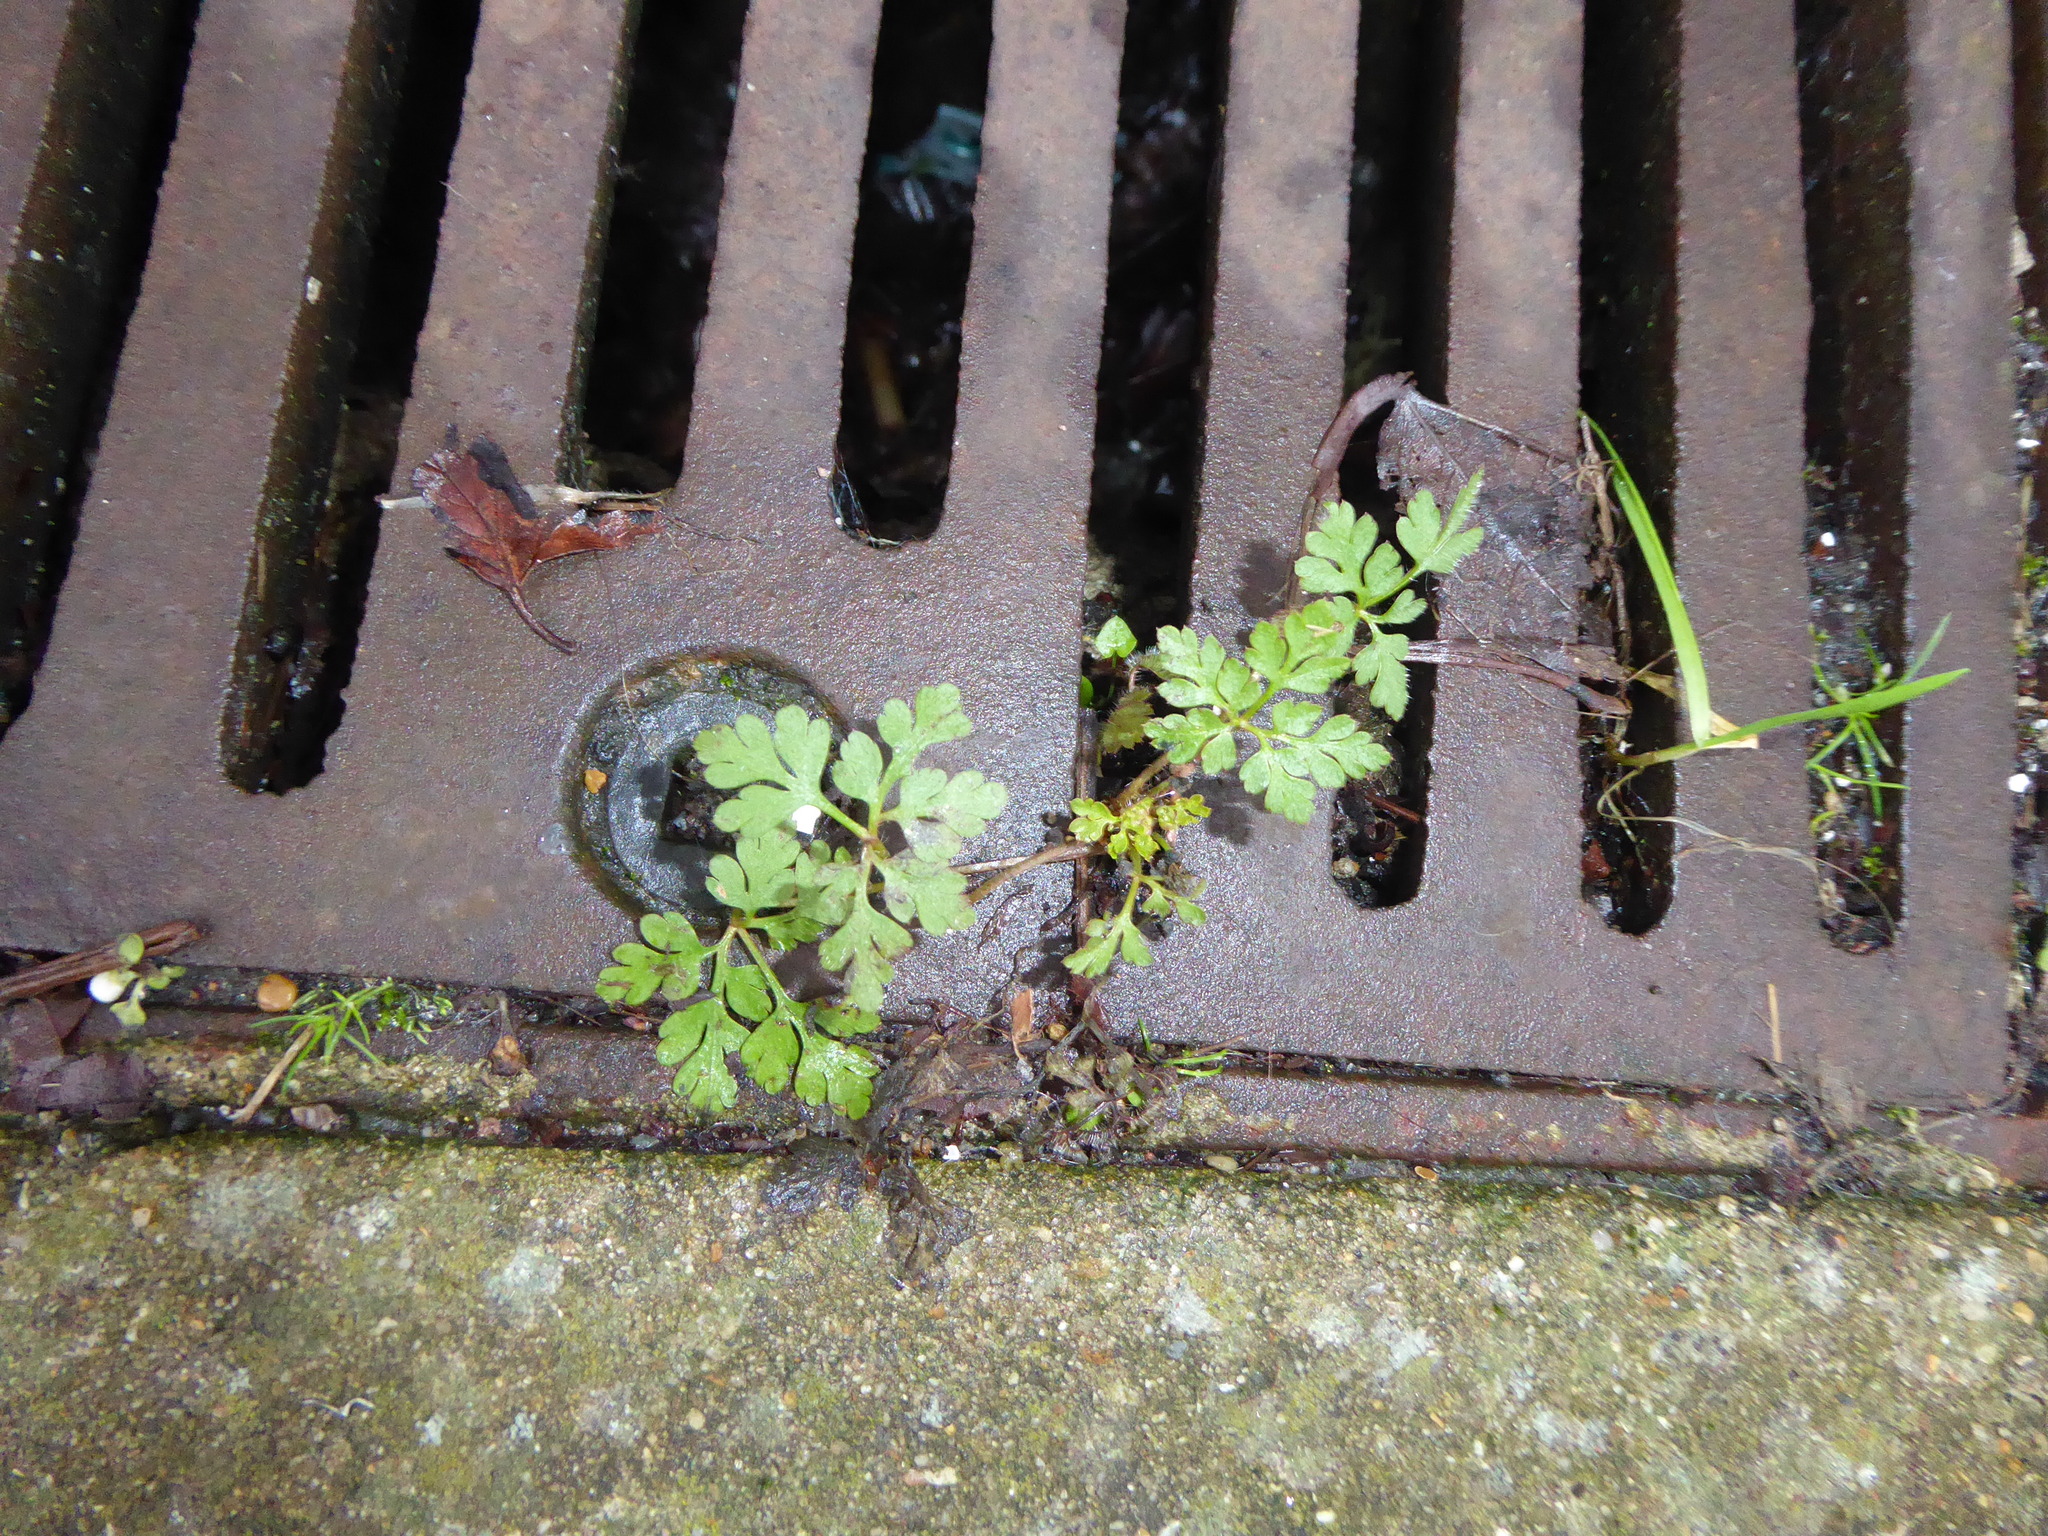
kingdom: Plantae
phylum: Tracheophyta
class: Magnoliopsida
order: Geraniales
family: Geraniaceae
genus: Geranium
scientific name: Geranium robertianum
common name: Herb-robert
